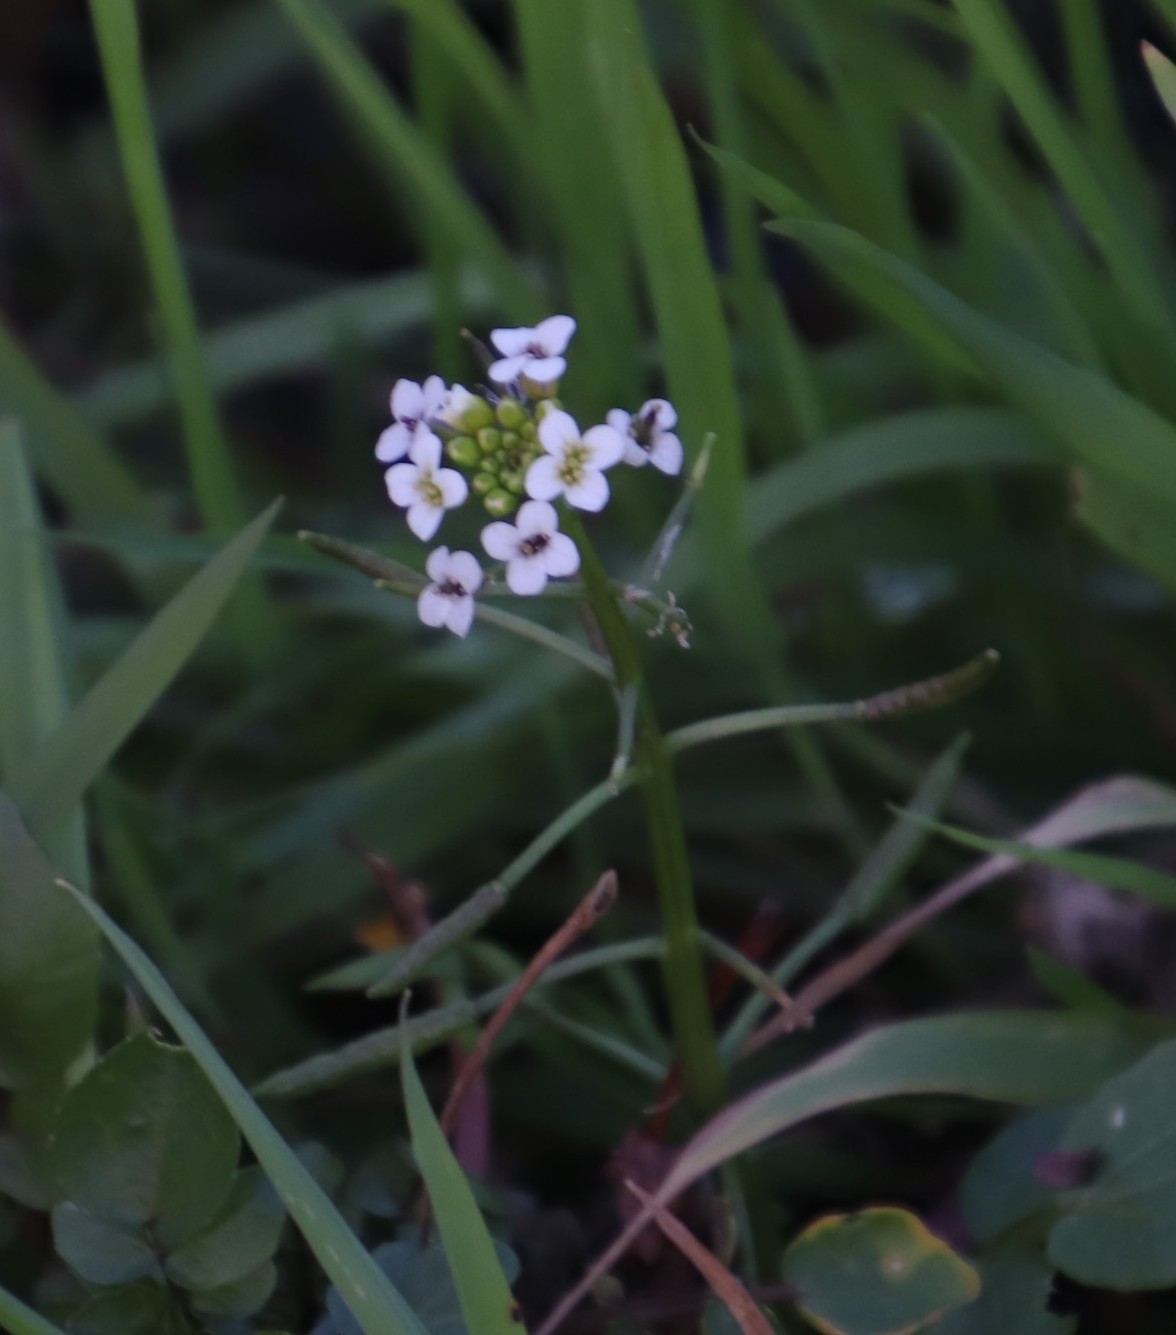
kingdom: Plantae
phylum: Tracheophyta
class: Magnoliopsida
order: Brassicales
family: Brassicaceae
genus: Nasturtium
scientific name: Nasturtium officinale
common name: Watercress
